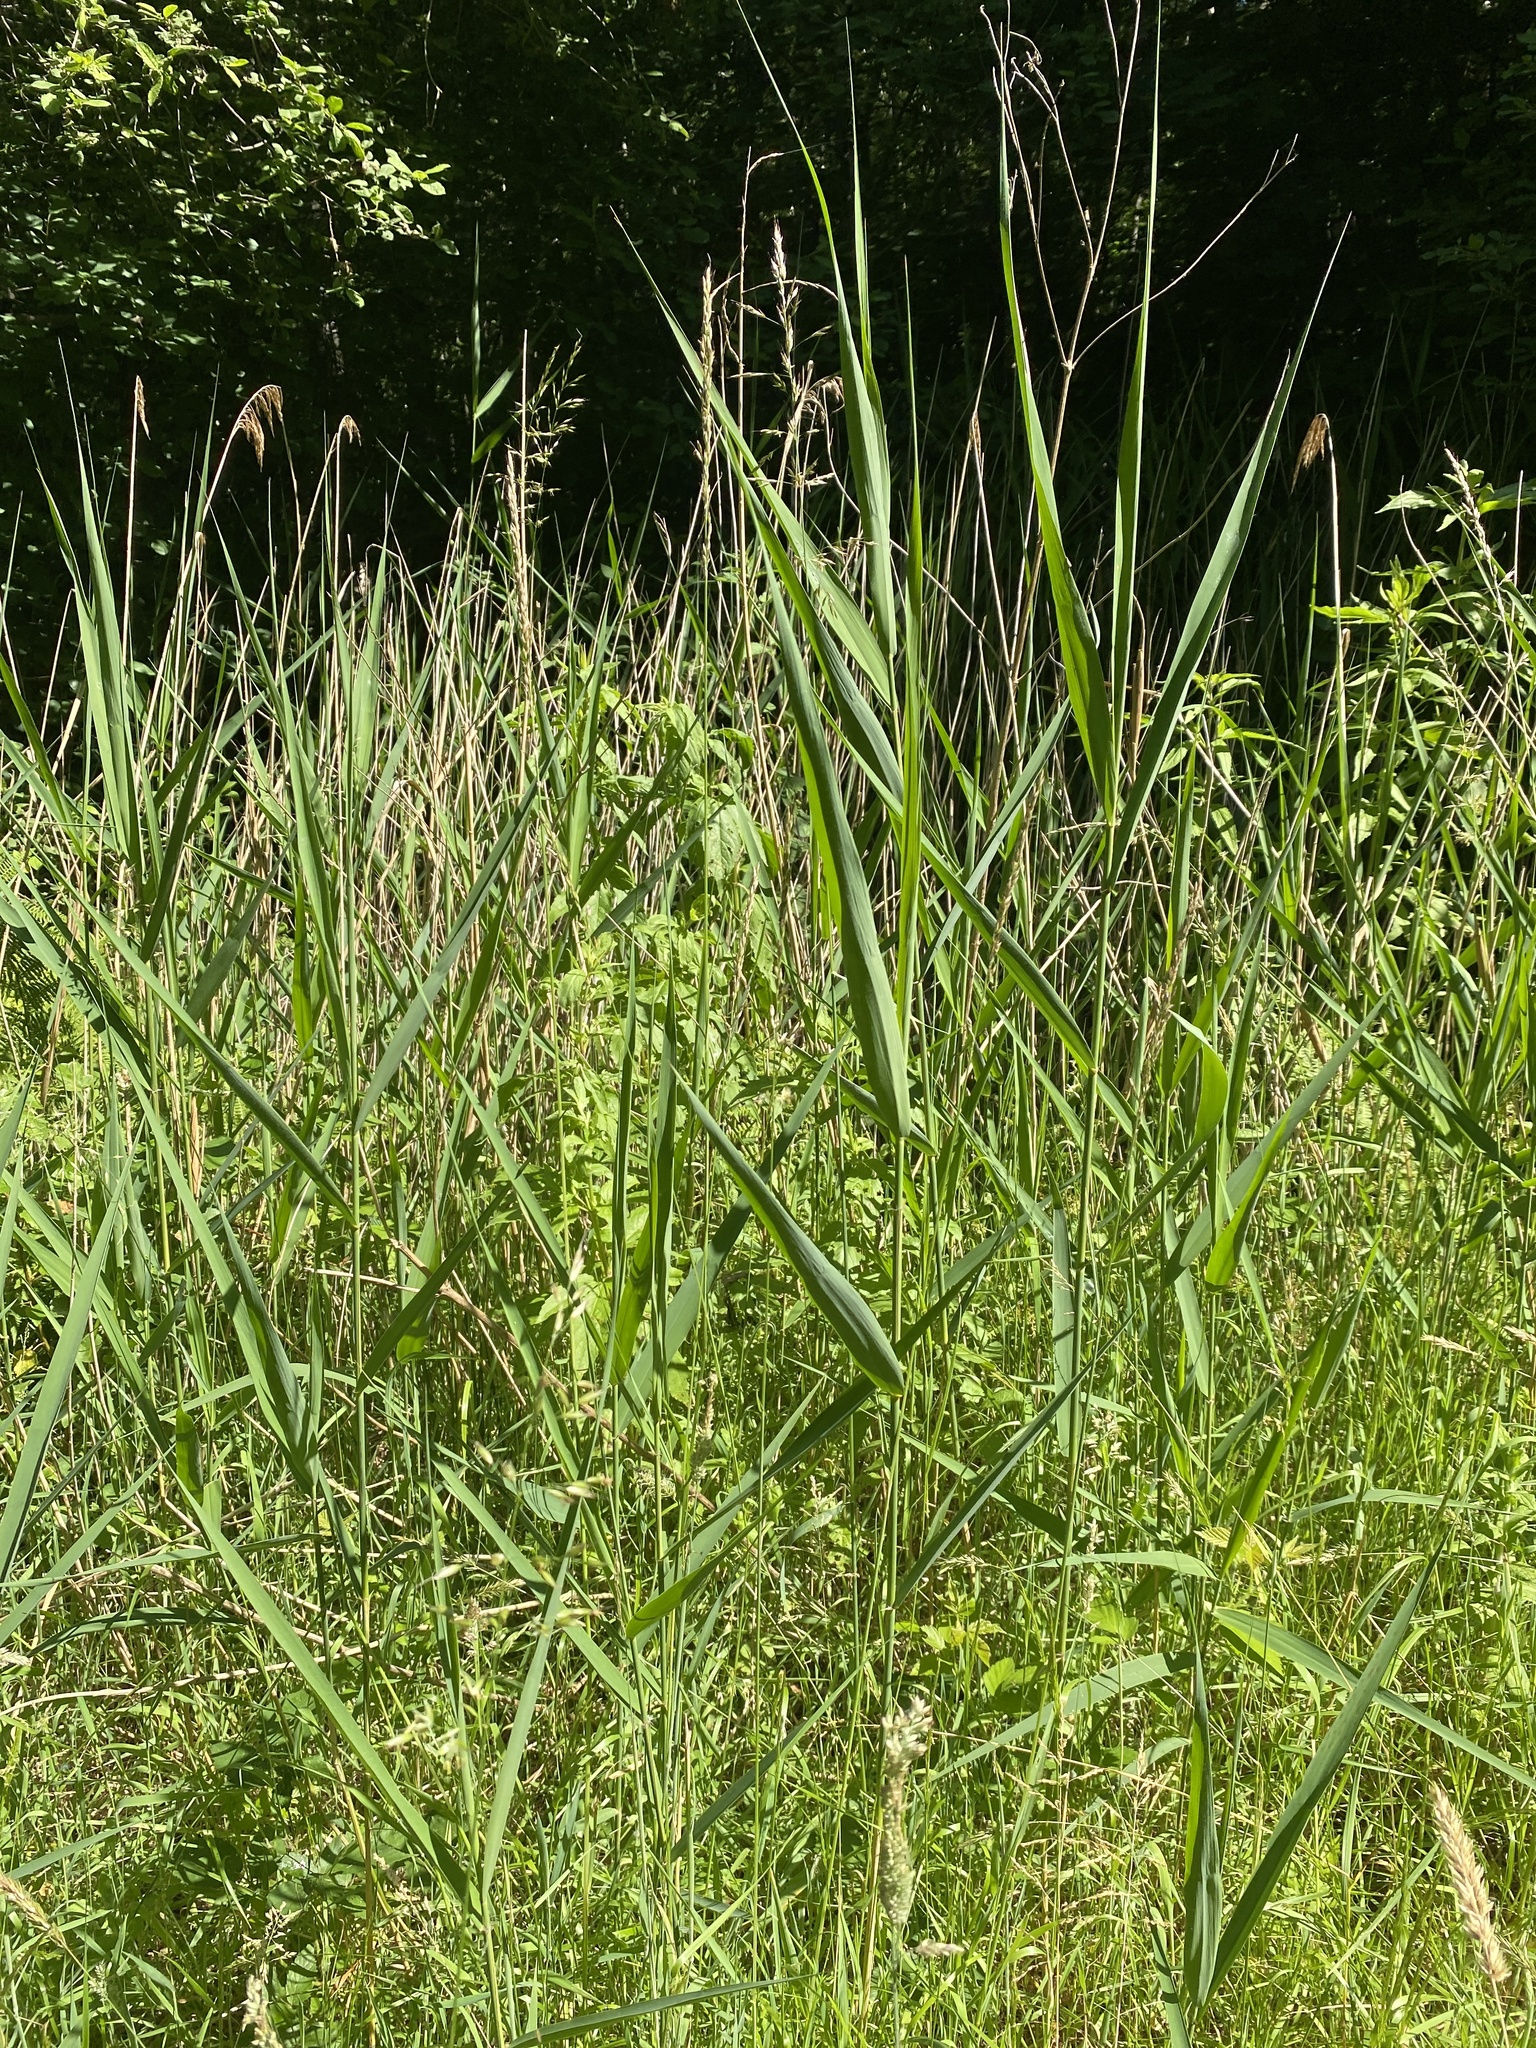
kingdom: Plantae
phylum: Tracheophyta
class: Liliopsida
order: Poales
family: Poaceae
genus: Phragmites
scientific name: Phragmites australis
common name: Common reed
